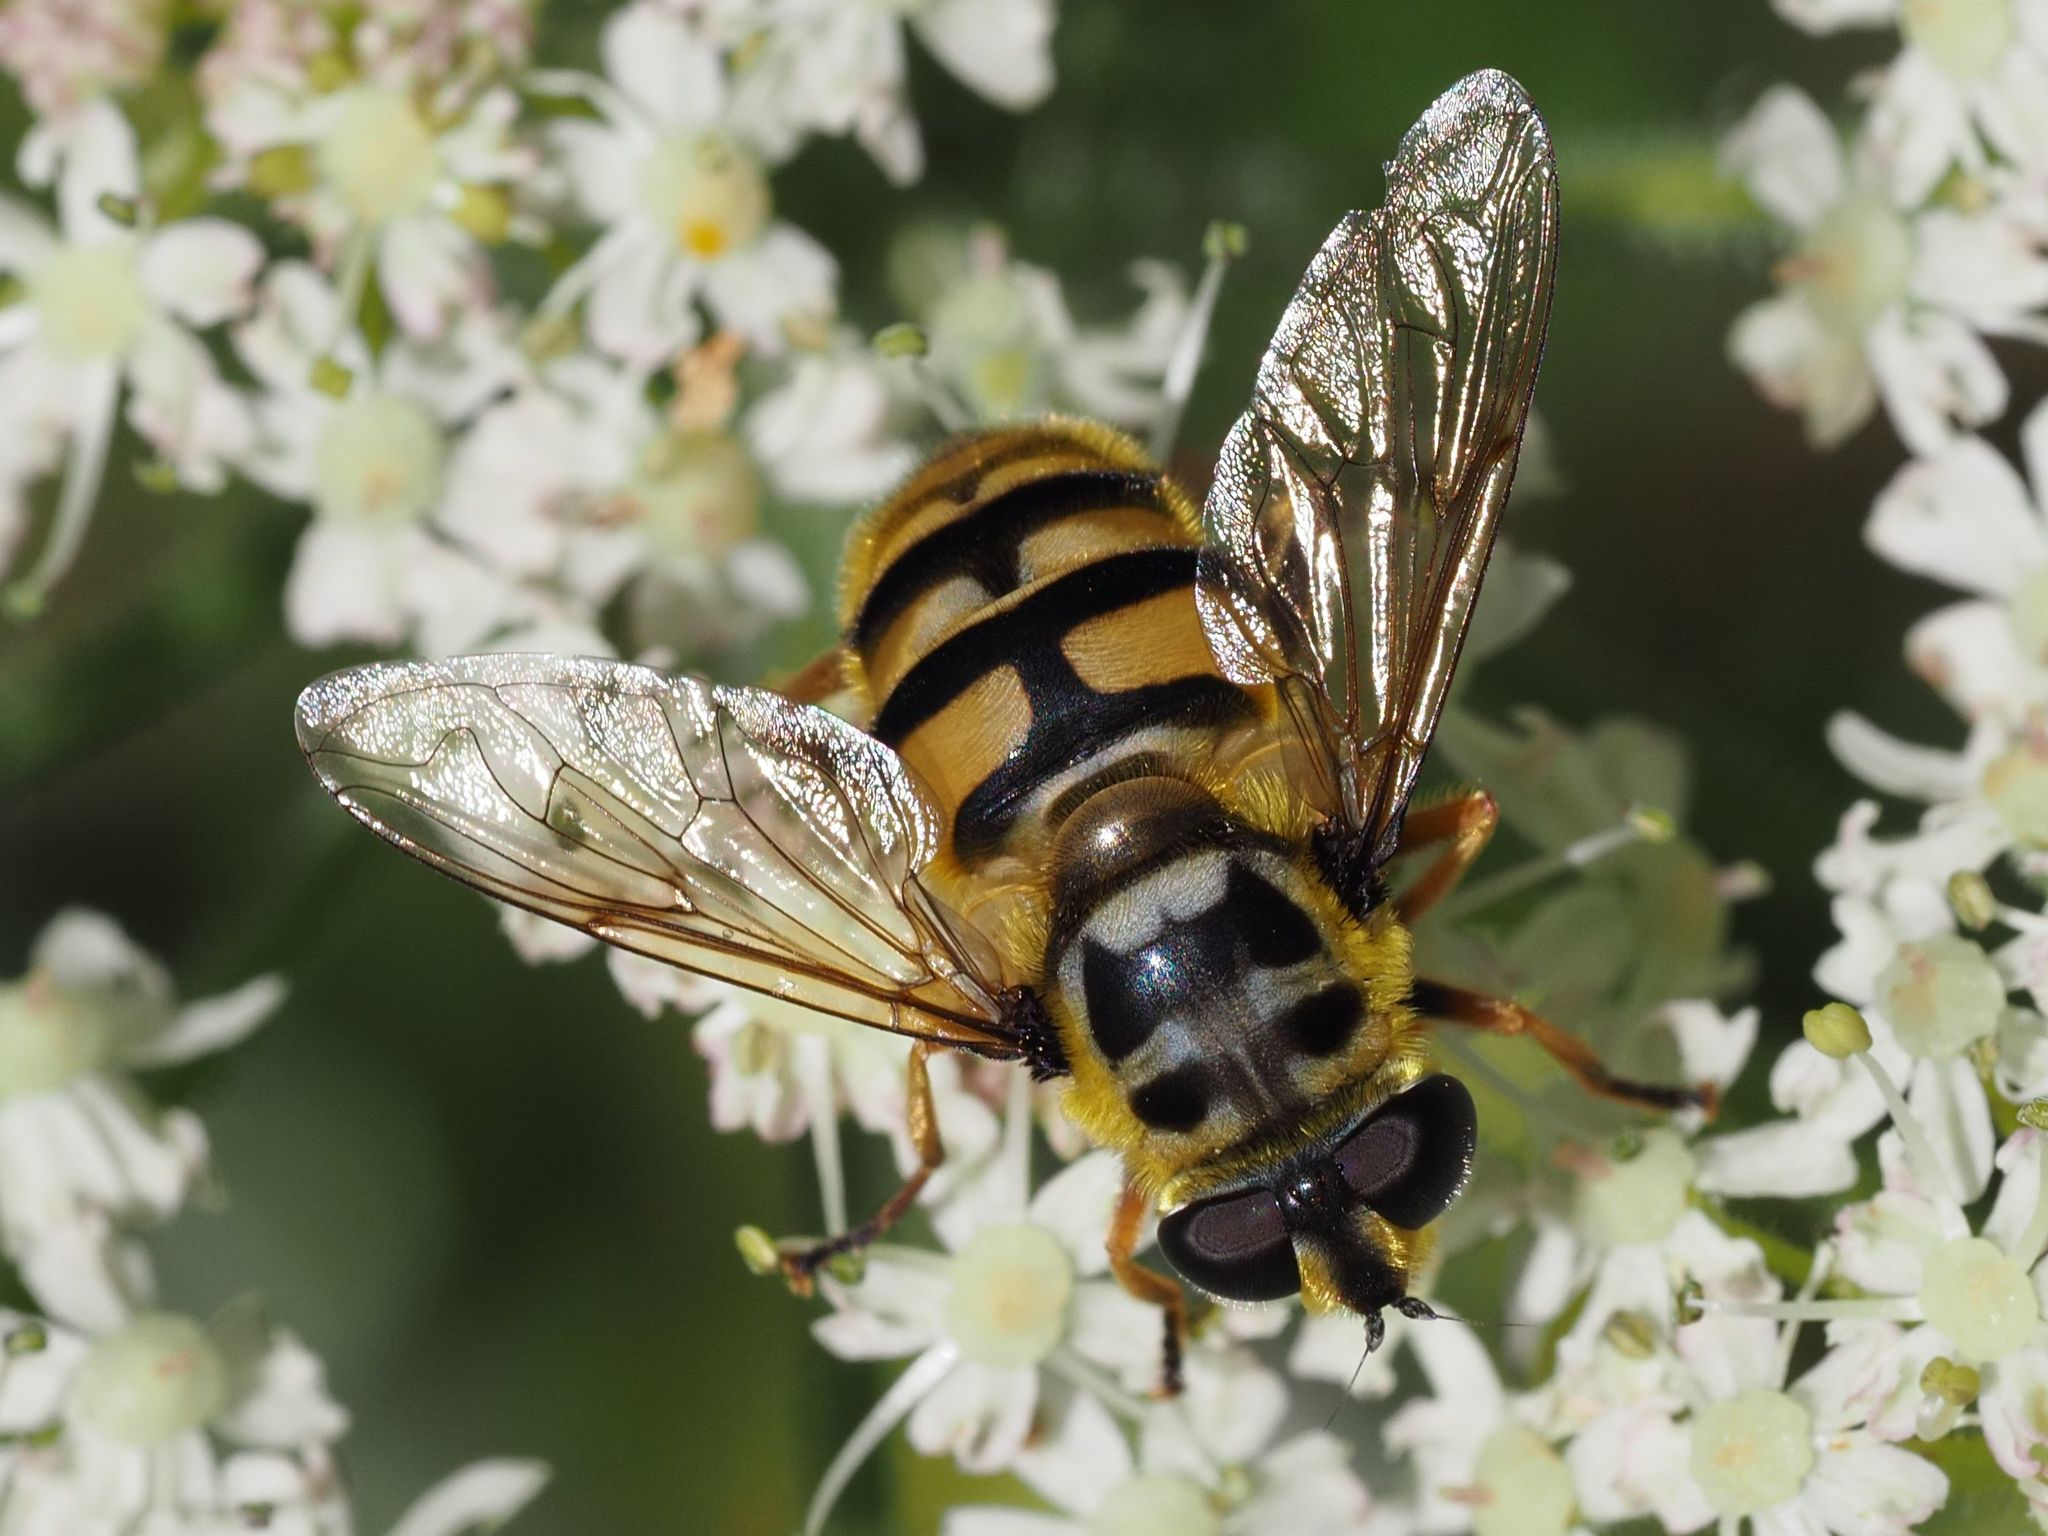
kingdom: Animalia
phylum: Arthropoda
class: Insecta
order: Diptera
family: Syrphidae
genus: Myathropa
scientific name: Myathropa florea
